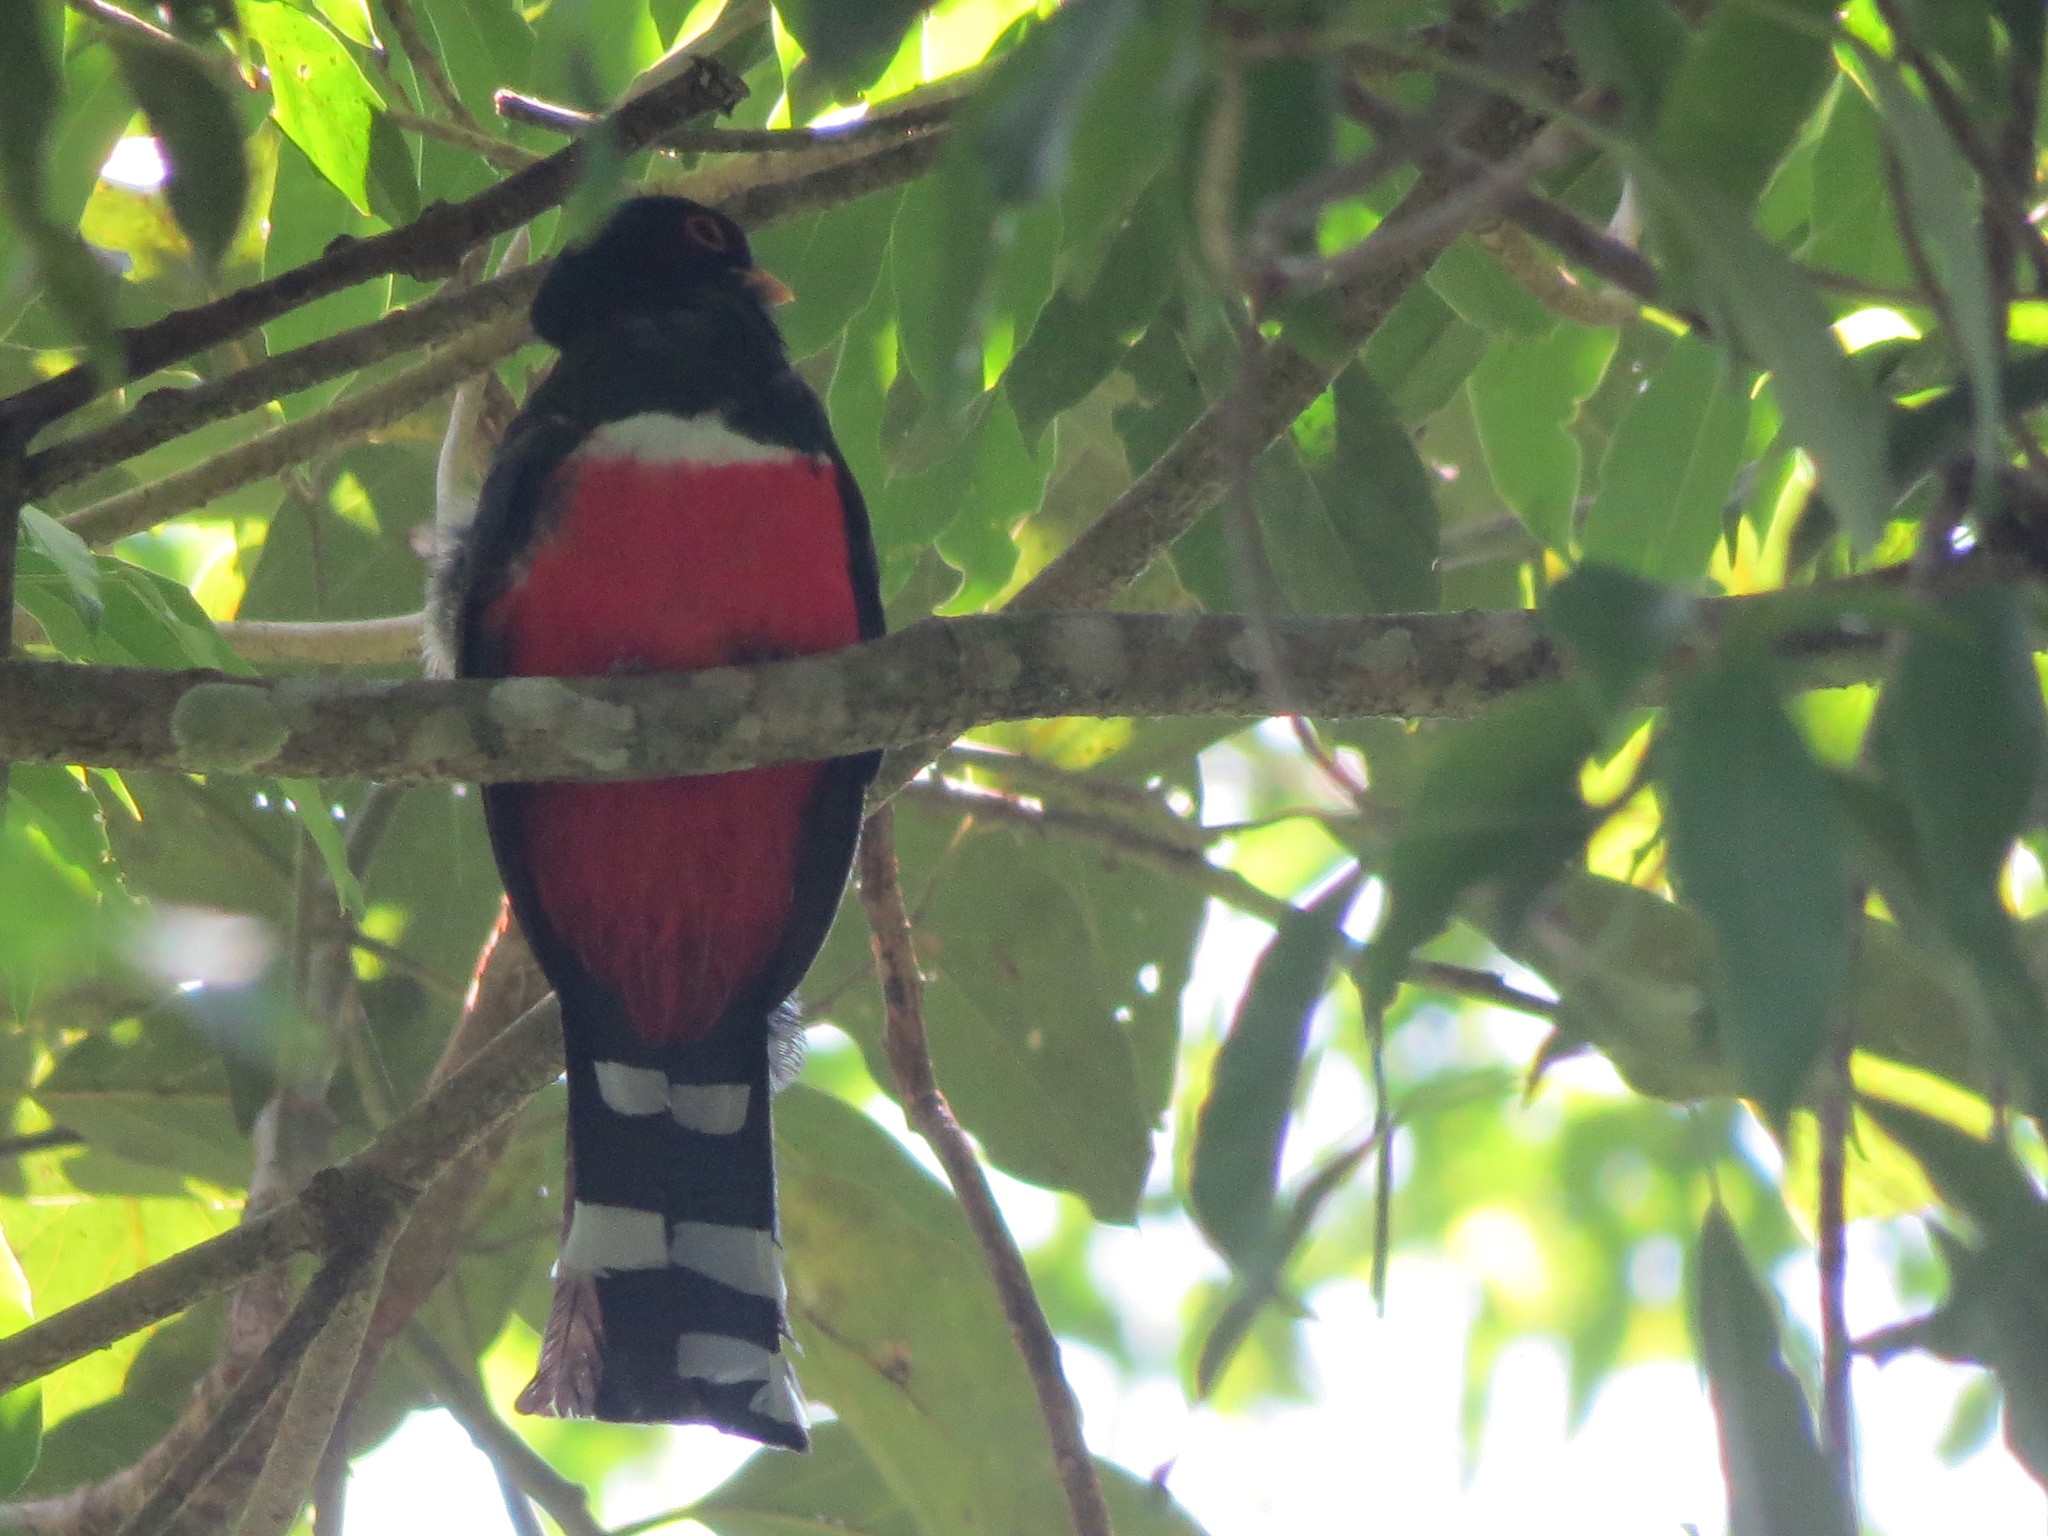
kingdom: Animalia
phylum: Chordata
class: Aves
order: Trogoniformes
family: Trogonidae
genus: Trogon
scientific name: Trogon mexicanus
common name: Mountain trogon
